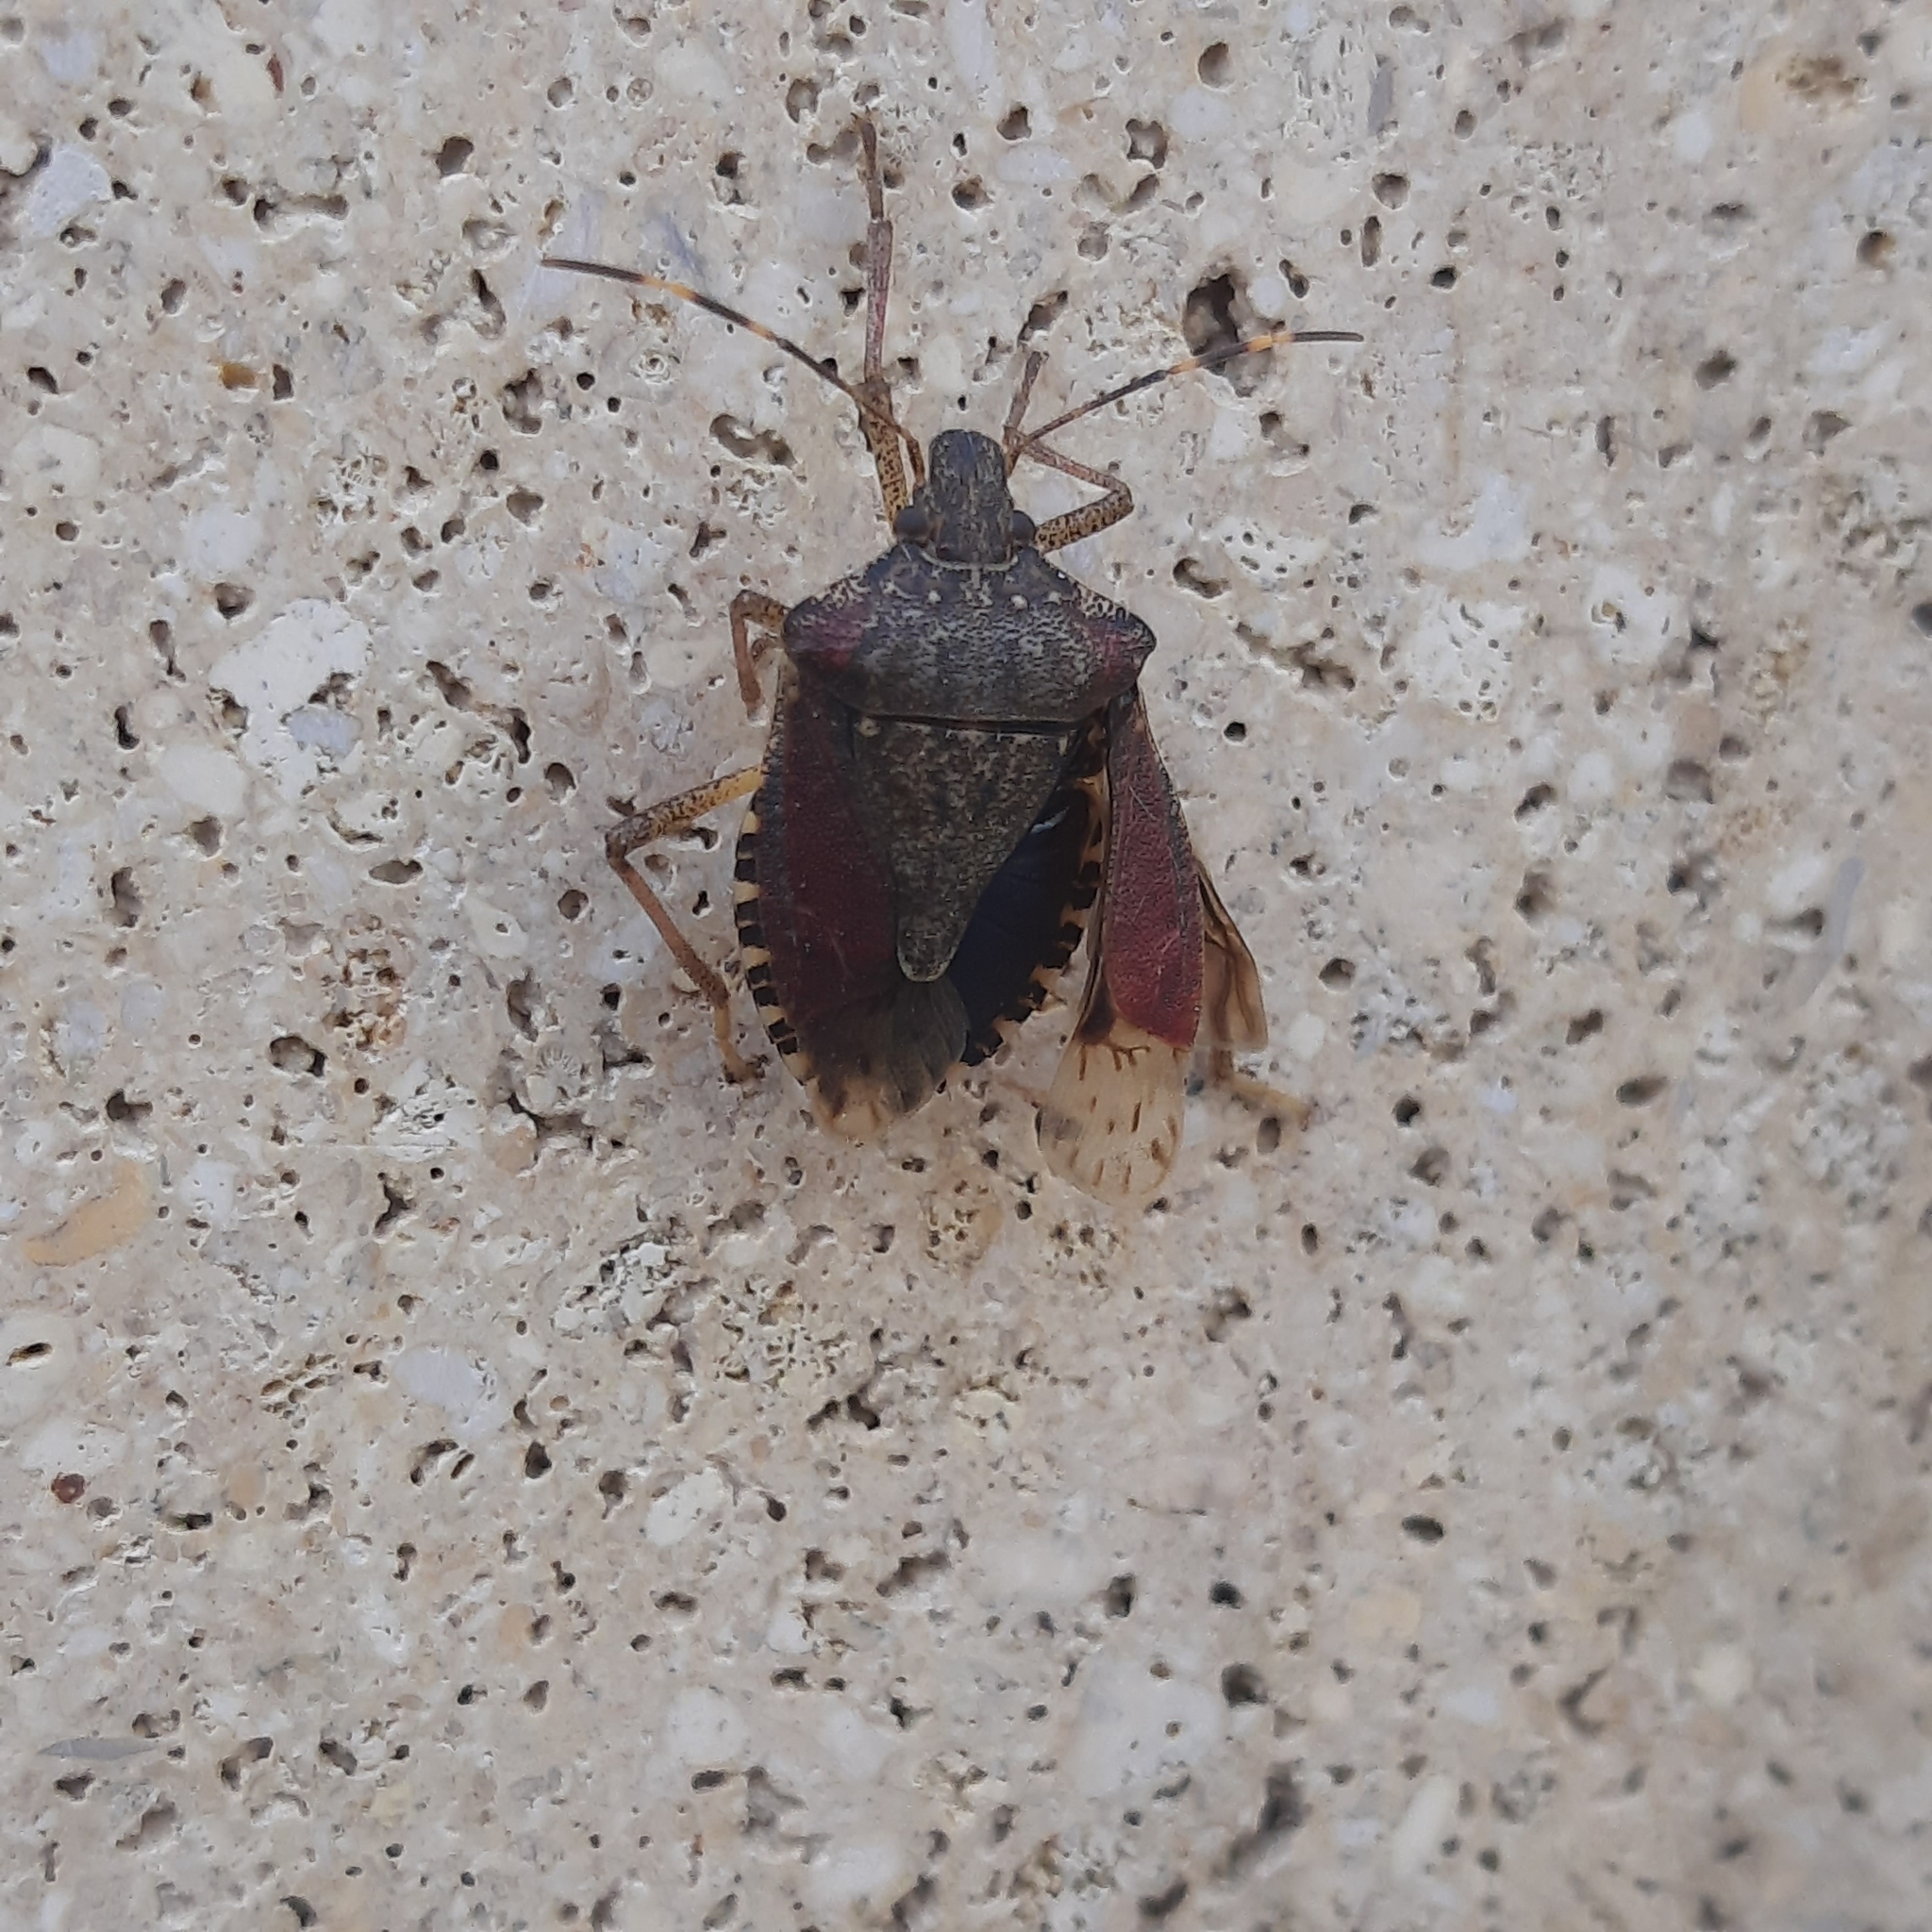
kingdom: Animalia
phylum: Arthropoda
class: Insecta
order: Hemiptera
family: Pentatomidae
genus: Halyomorpha
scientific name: Halyomorpha halys
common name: Brown marmorated stink bug
